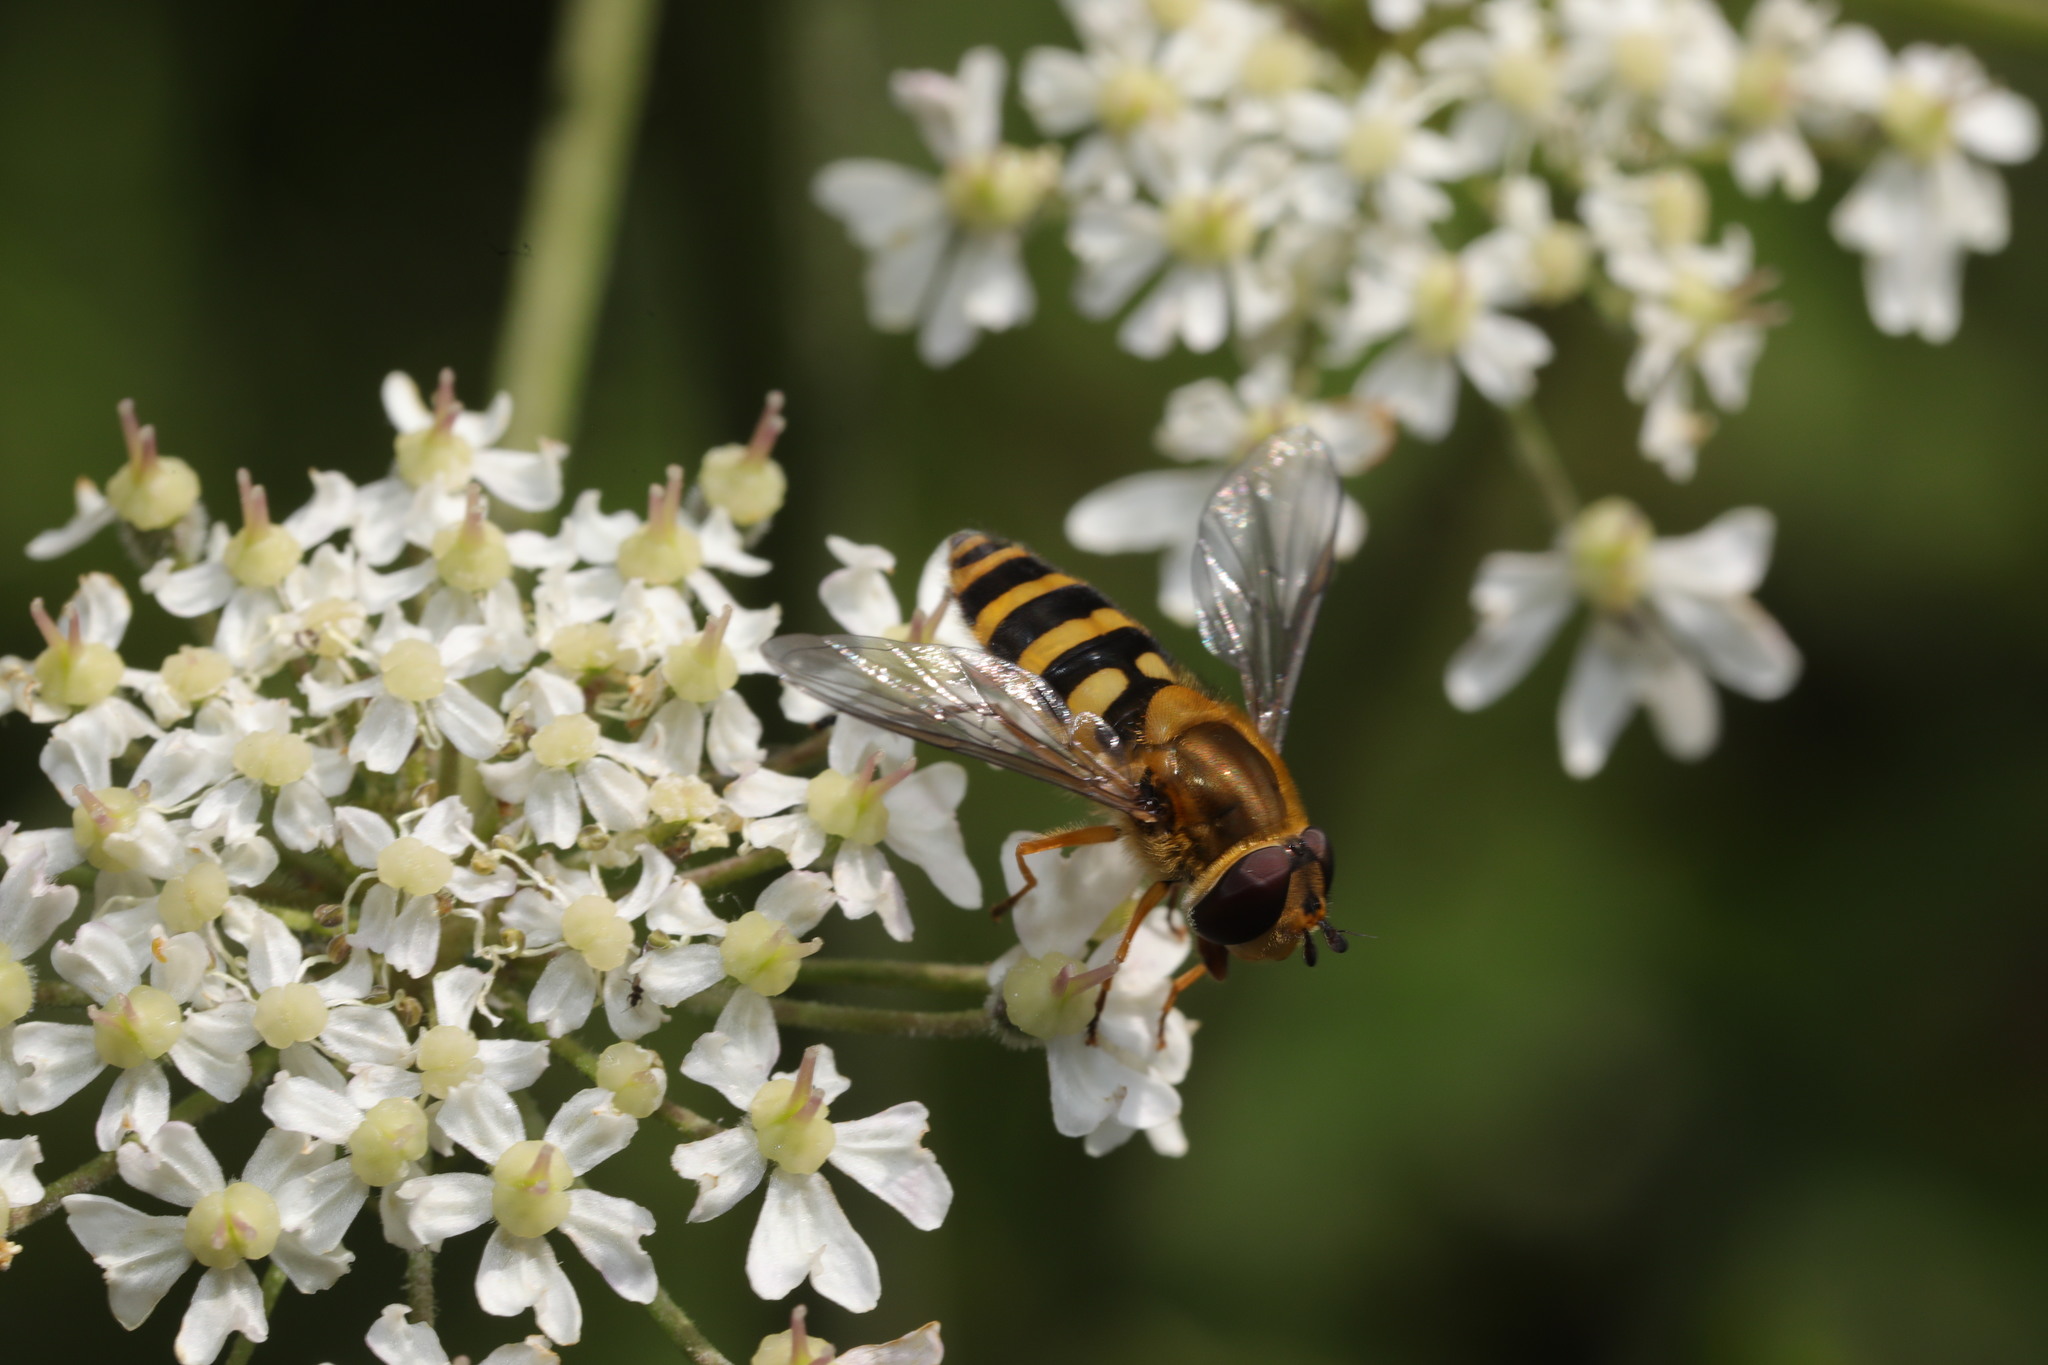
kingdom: Animalia
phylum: Arthropoda
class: Insecta
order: Diptera
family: Syrphidae
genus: Syrphus
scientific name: Syrphus ribesii
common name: Common flower fly
